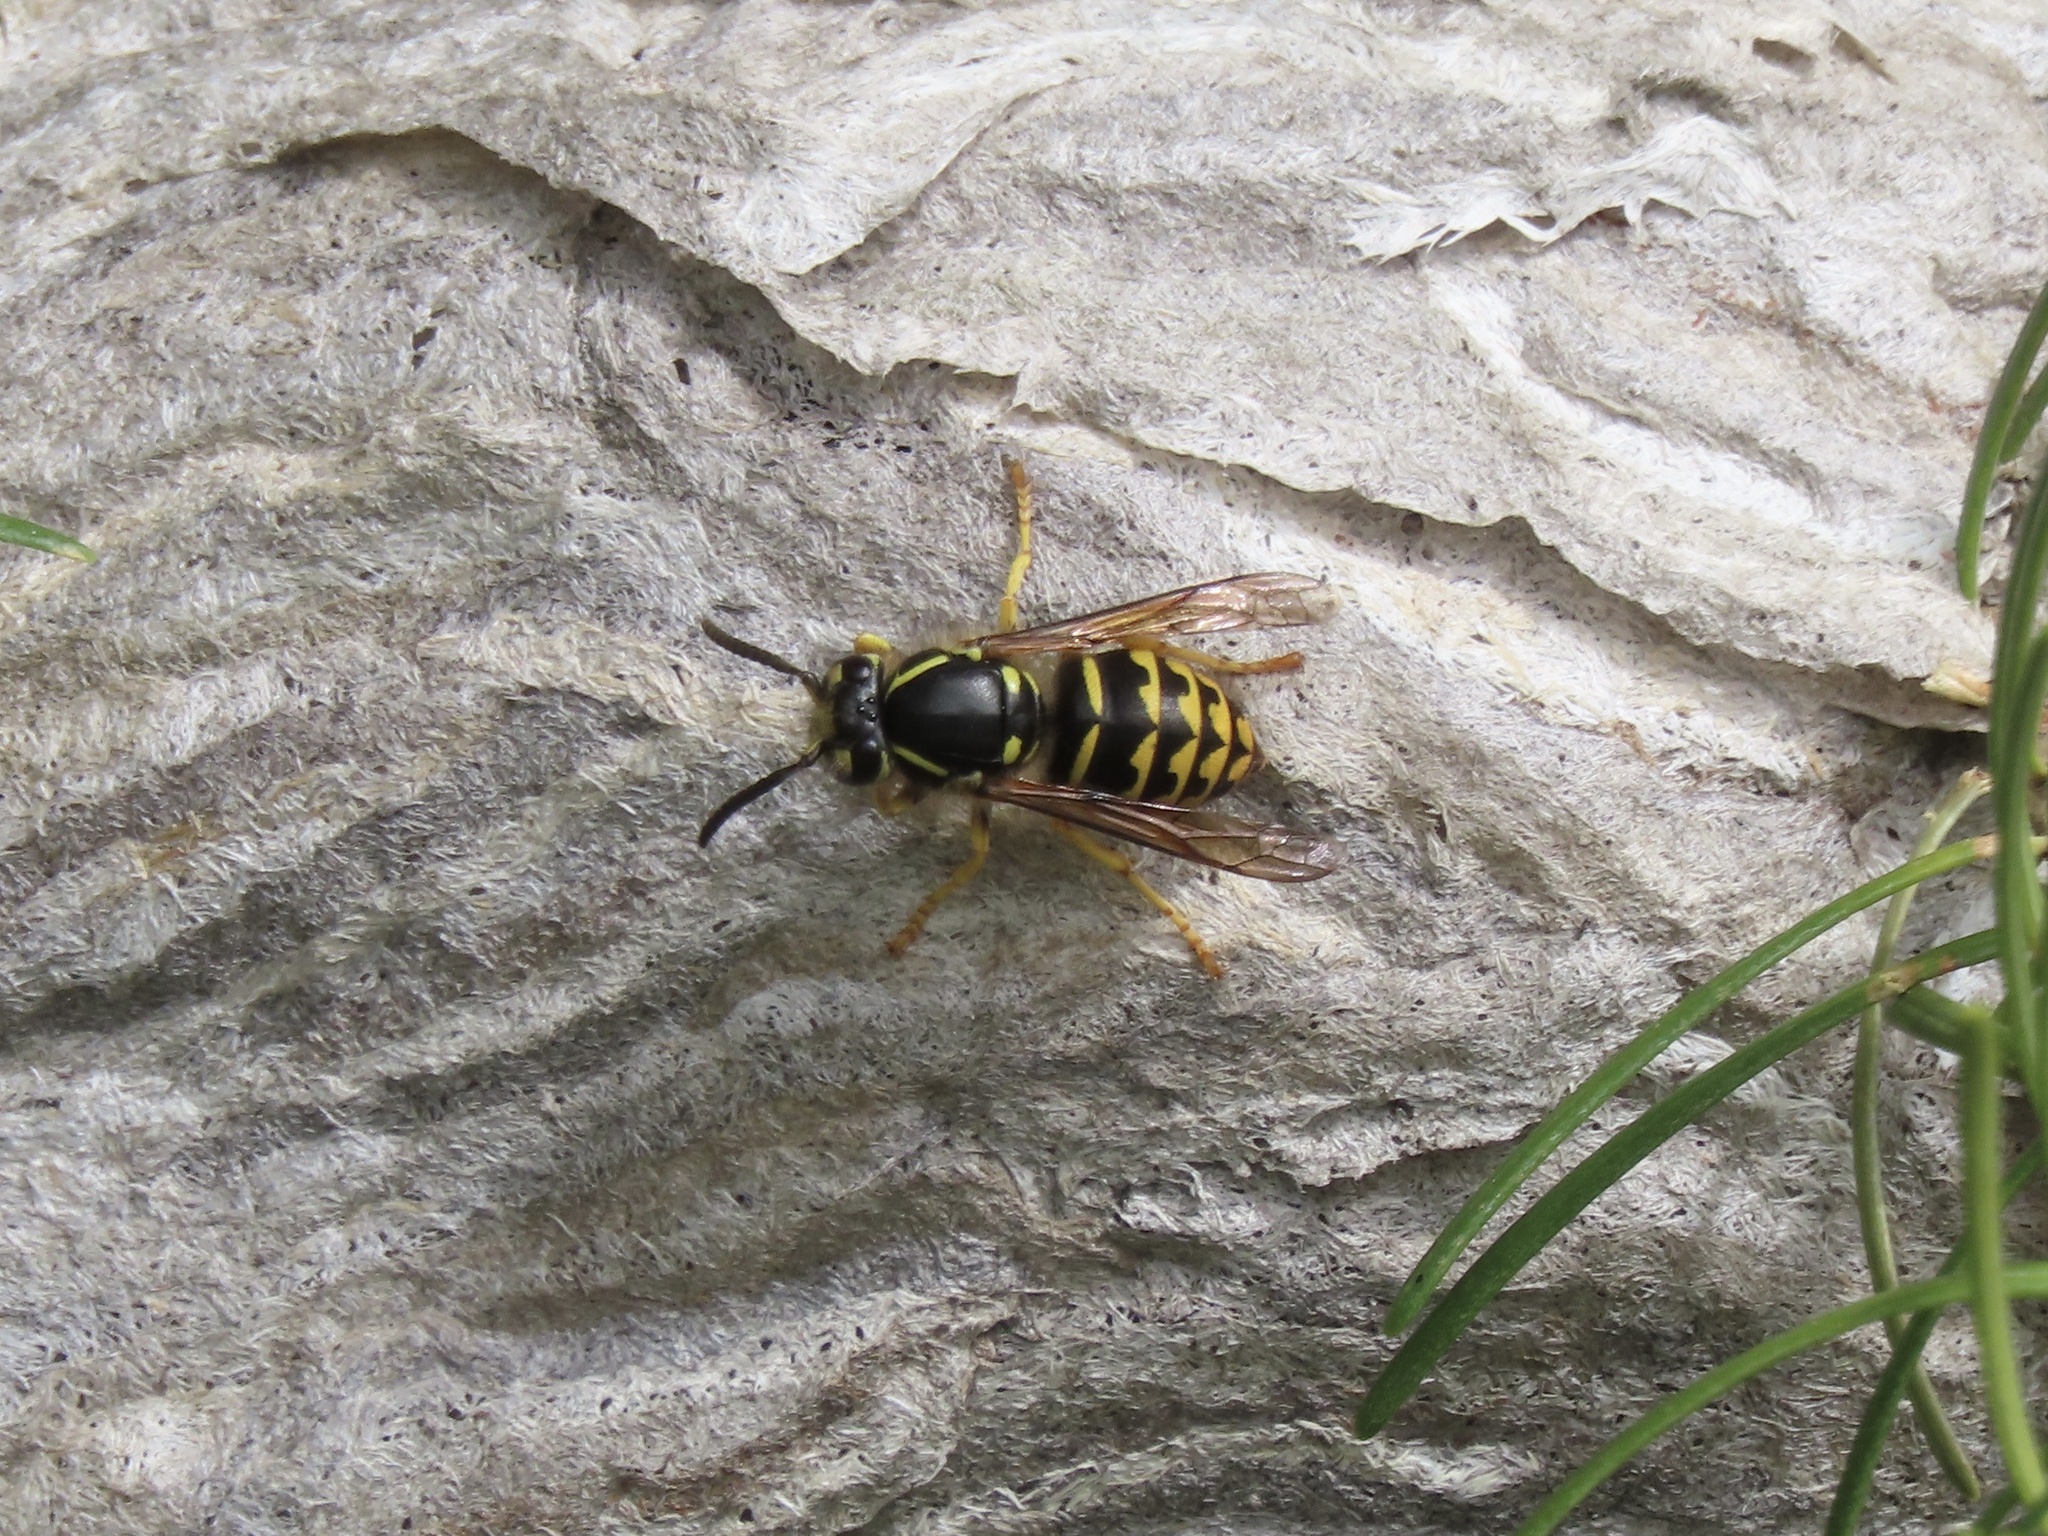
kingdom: Animalia
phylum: Arthropoda
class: Insecta
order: Hymenoptera
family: Vespidae
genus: Dolichovespula
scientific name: Dolichovespula arenaria
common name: Aerial yellowjacket
